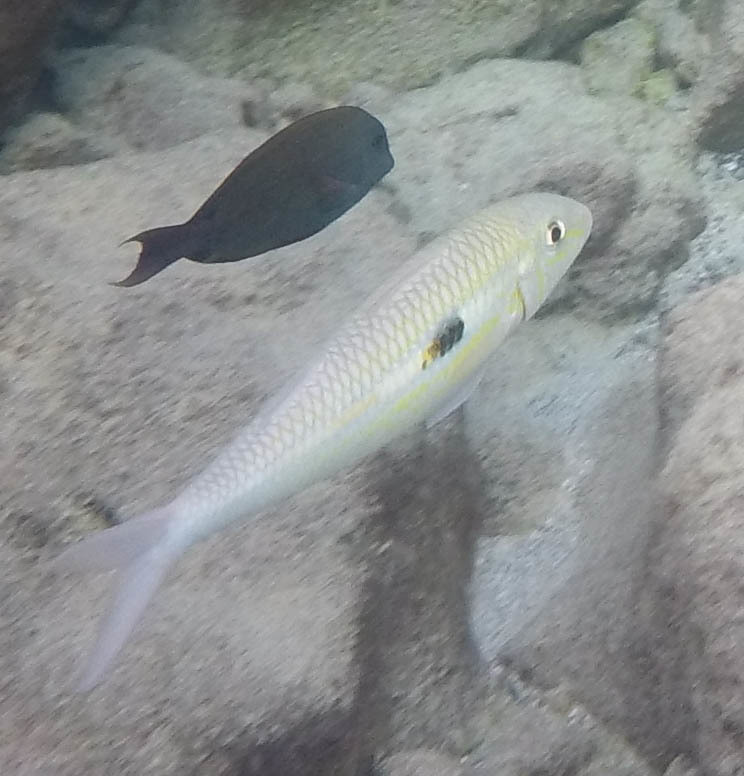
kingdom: Animalia
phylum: Chordata
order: Perciformes
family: Mullidae
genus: Mulloidichthys
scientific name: Mulloidichthys flavolineatus
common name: Yellowstripe goatfish
